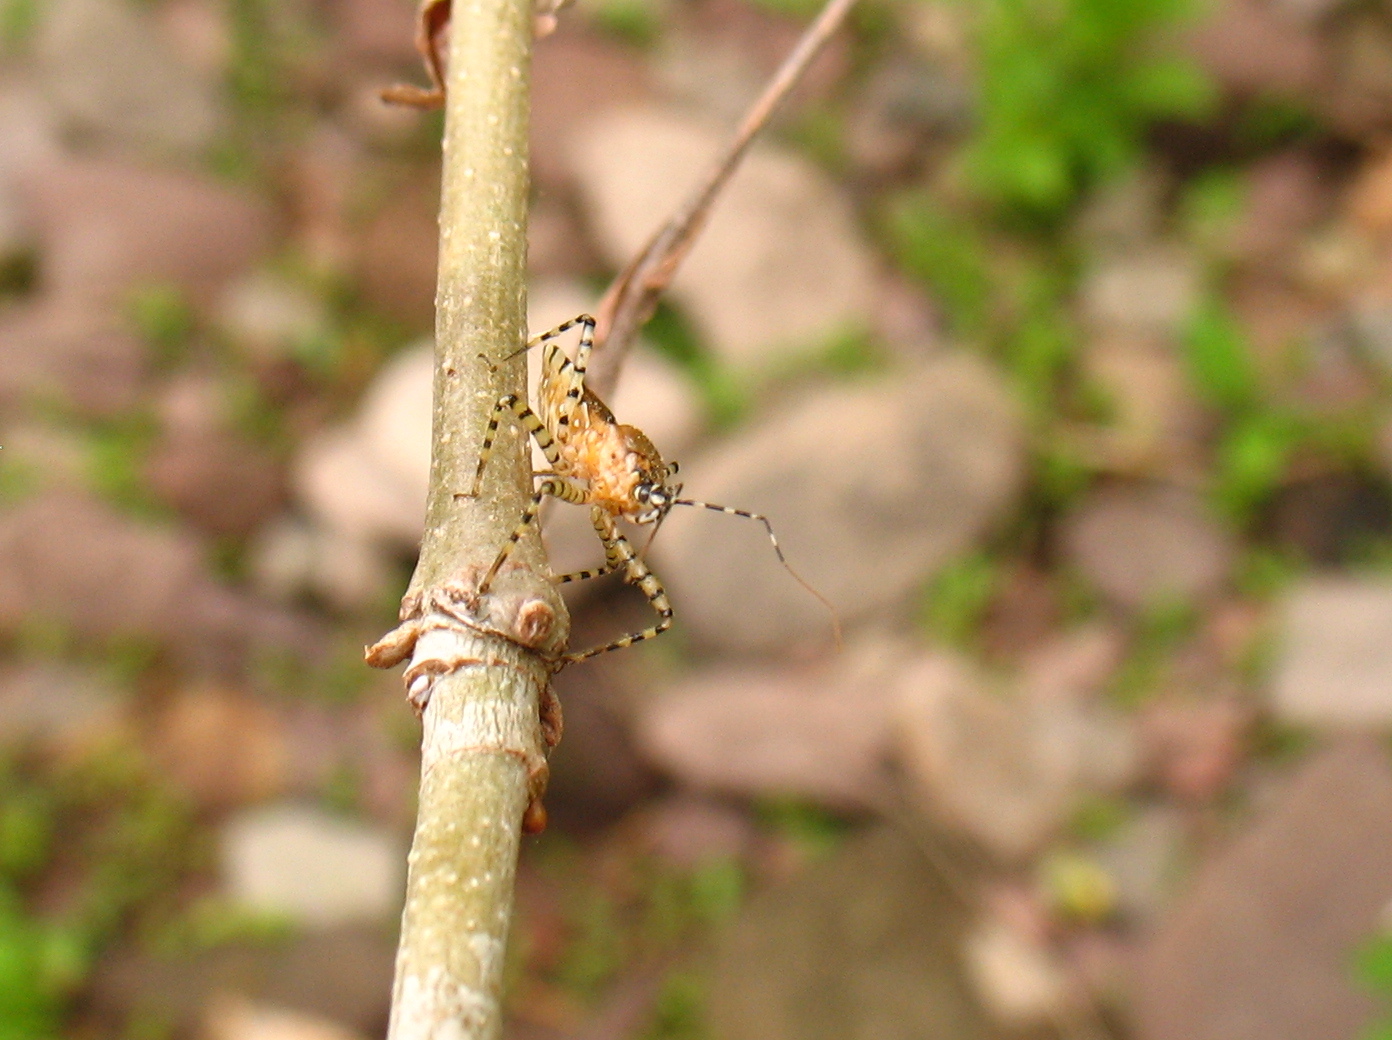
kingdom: Animalia
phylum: Arthropoda
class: Insecta
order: Hemiptera
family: Reduviidae
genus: Pselliopus
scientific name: Pselliopus cinctus
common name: Ringed assassin bug
